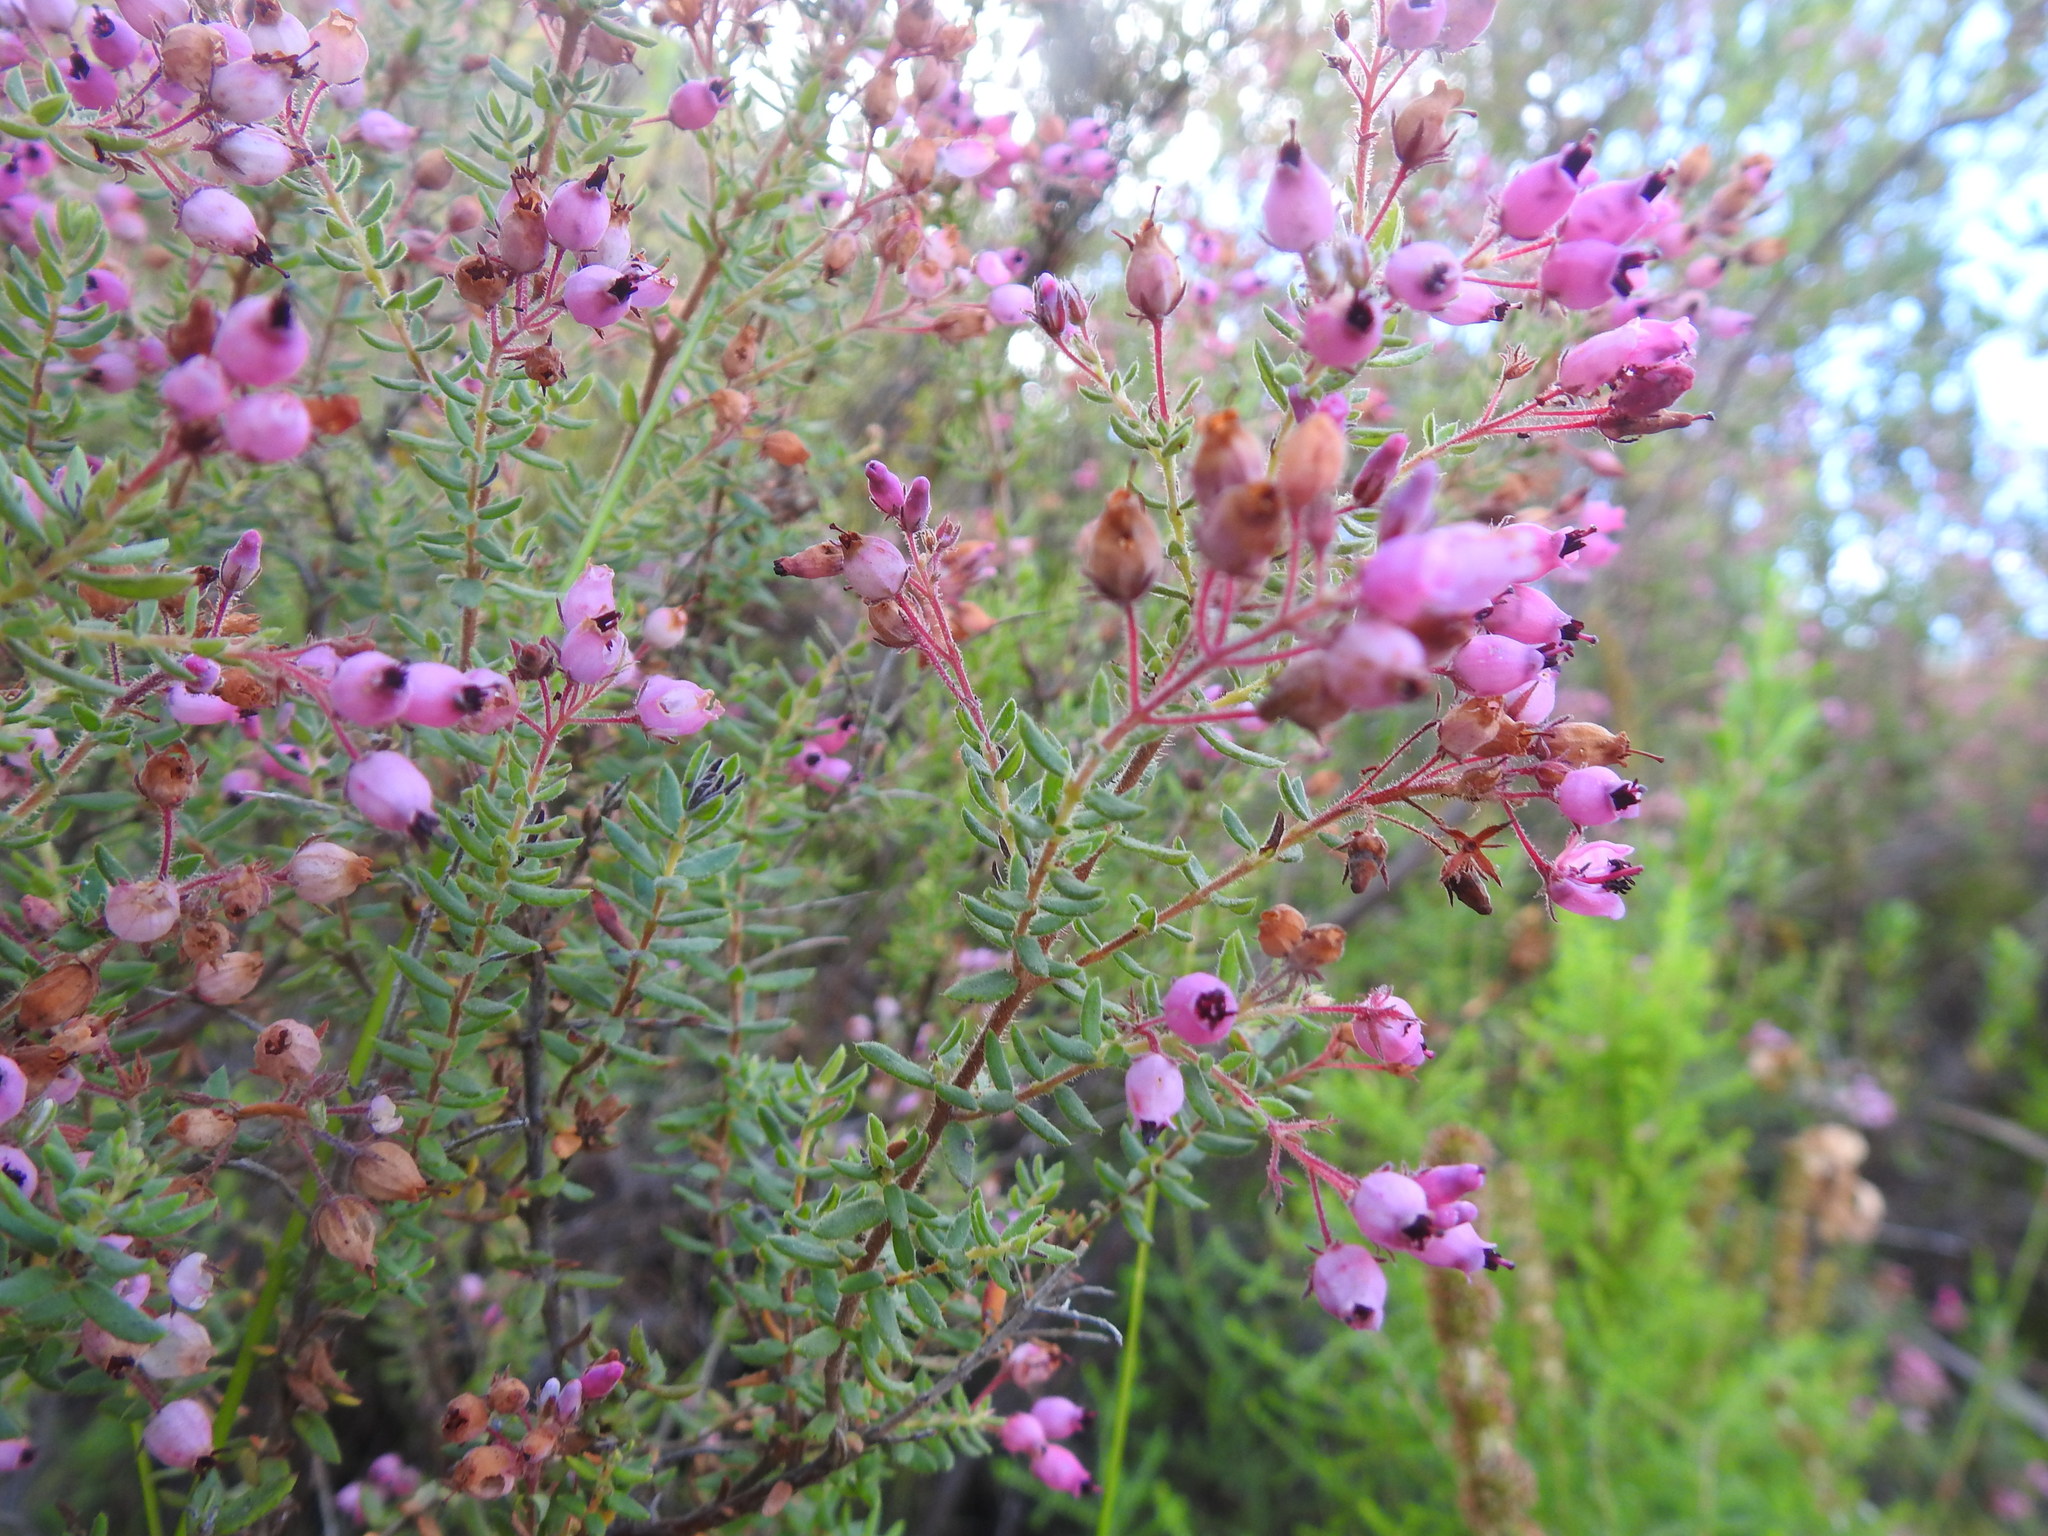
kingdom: Plantae
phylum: Tracheophyta
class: Magnoliopsida
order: Ericales
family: Ericaceae
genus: Erica
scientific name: Erica hirta
